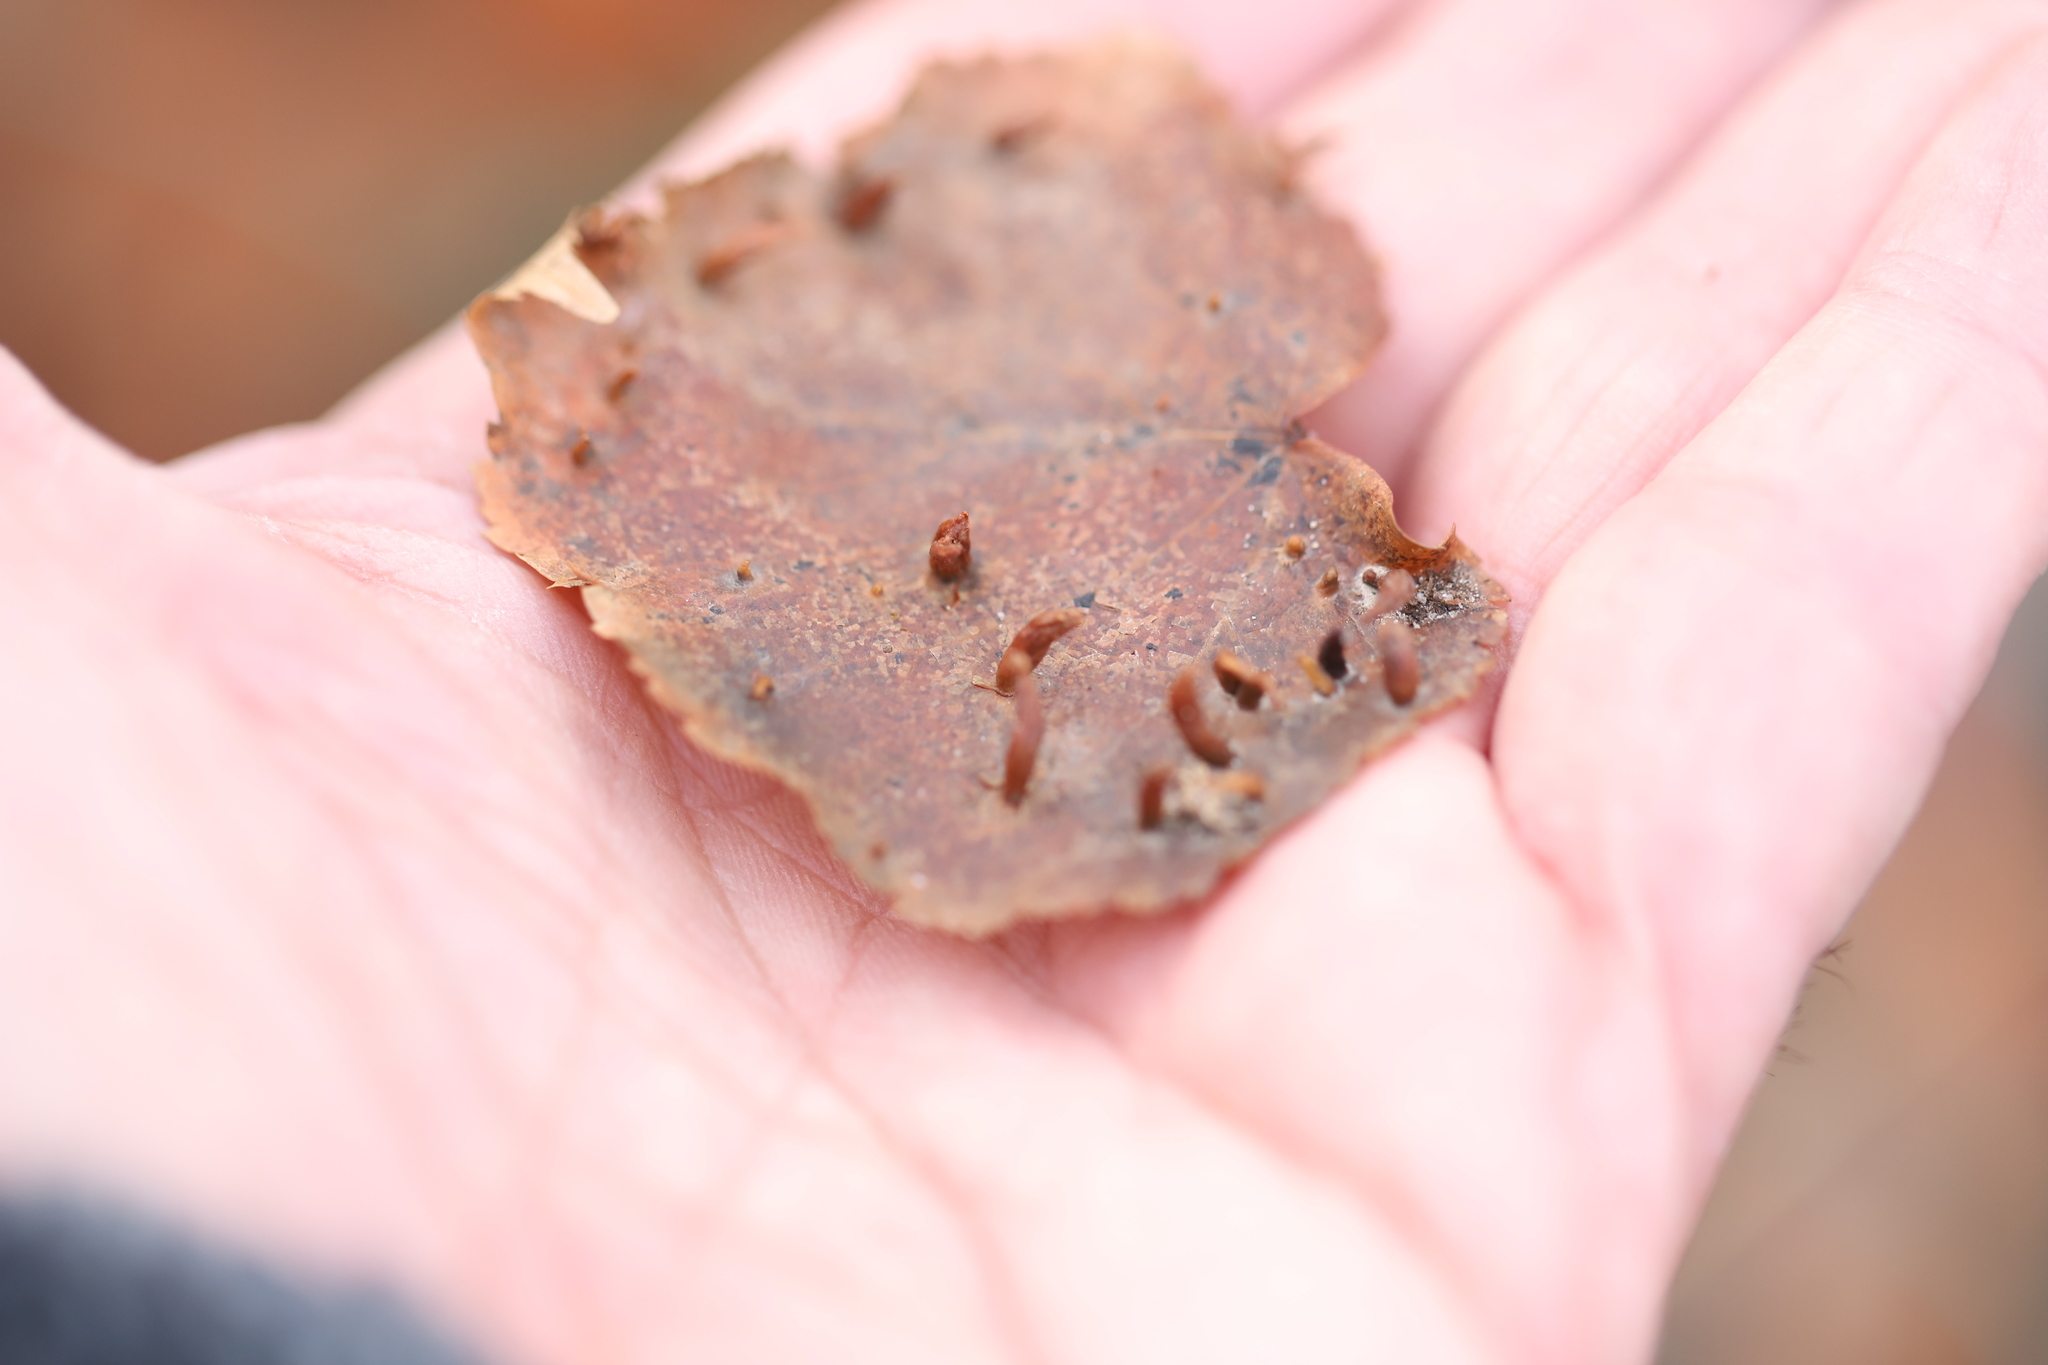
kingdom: Animalia
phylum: Arthropoda
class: Arachnida
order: Trombidiformes
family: Eriophyidae
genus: Eriophyes
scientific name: Eriophyes tiliae
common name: Red nail gall mite
